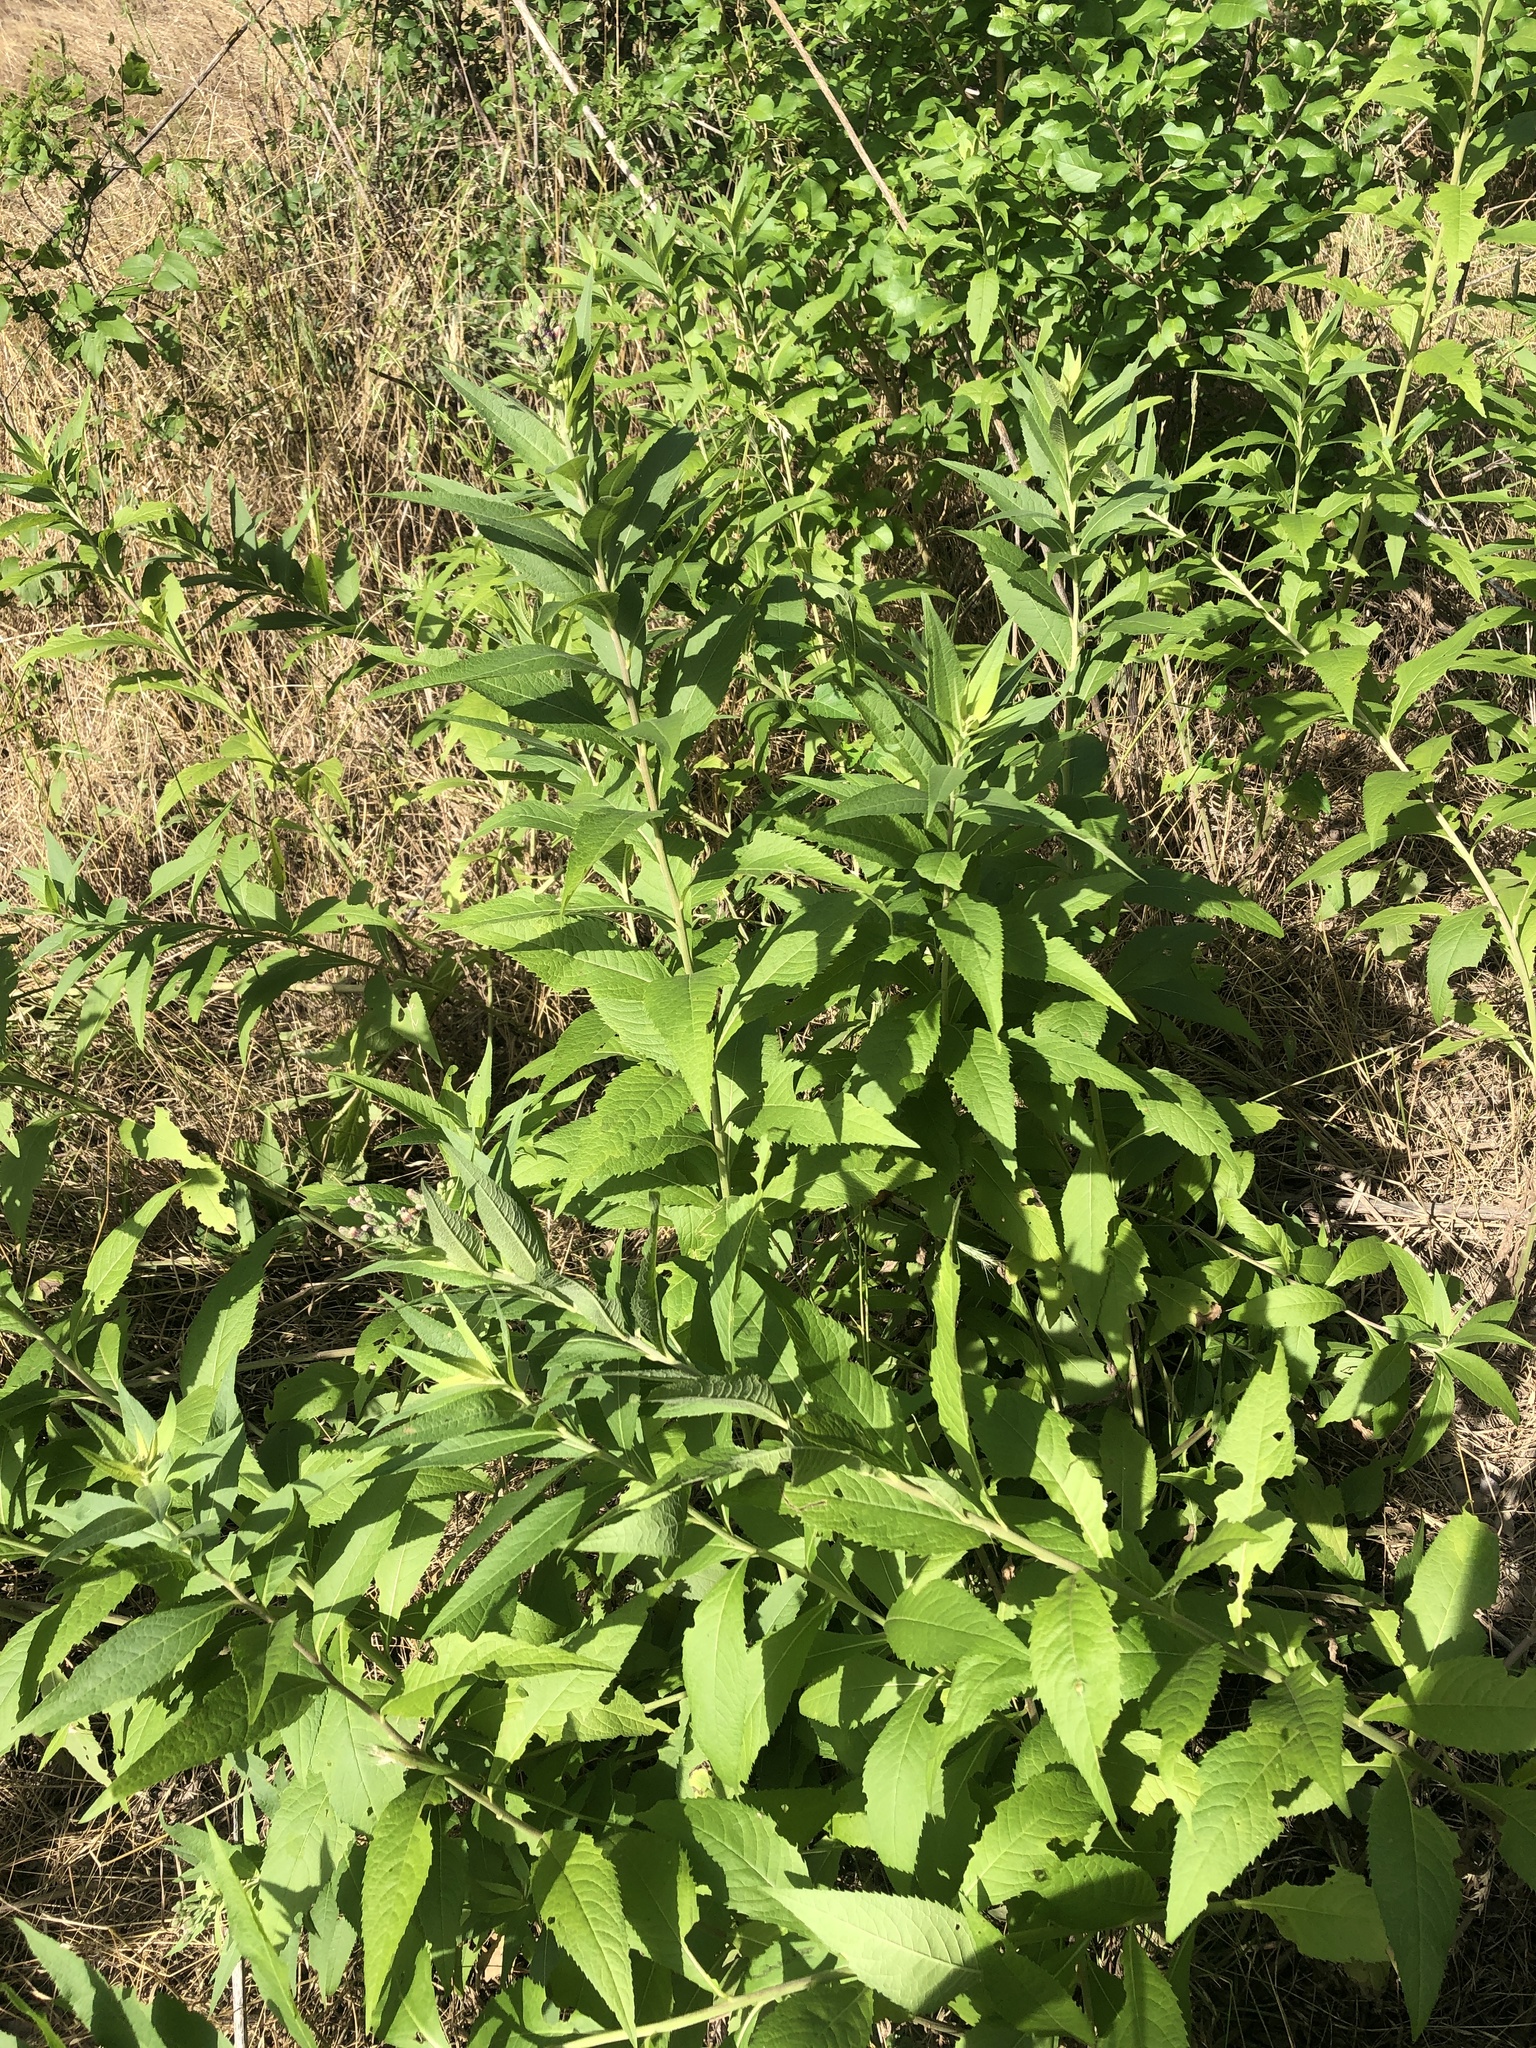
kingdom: Plantae
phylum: Tracheophyta
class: Magnoliopsida
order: Asterales
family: Asteraceae
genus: Vernonia
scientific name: Vernonia baldwinii
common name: Western ironweed
